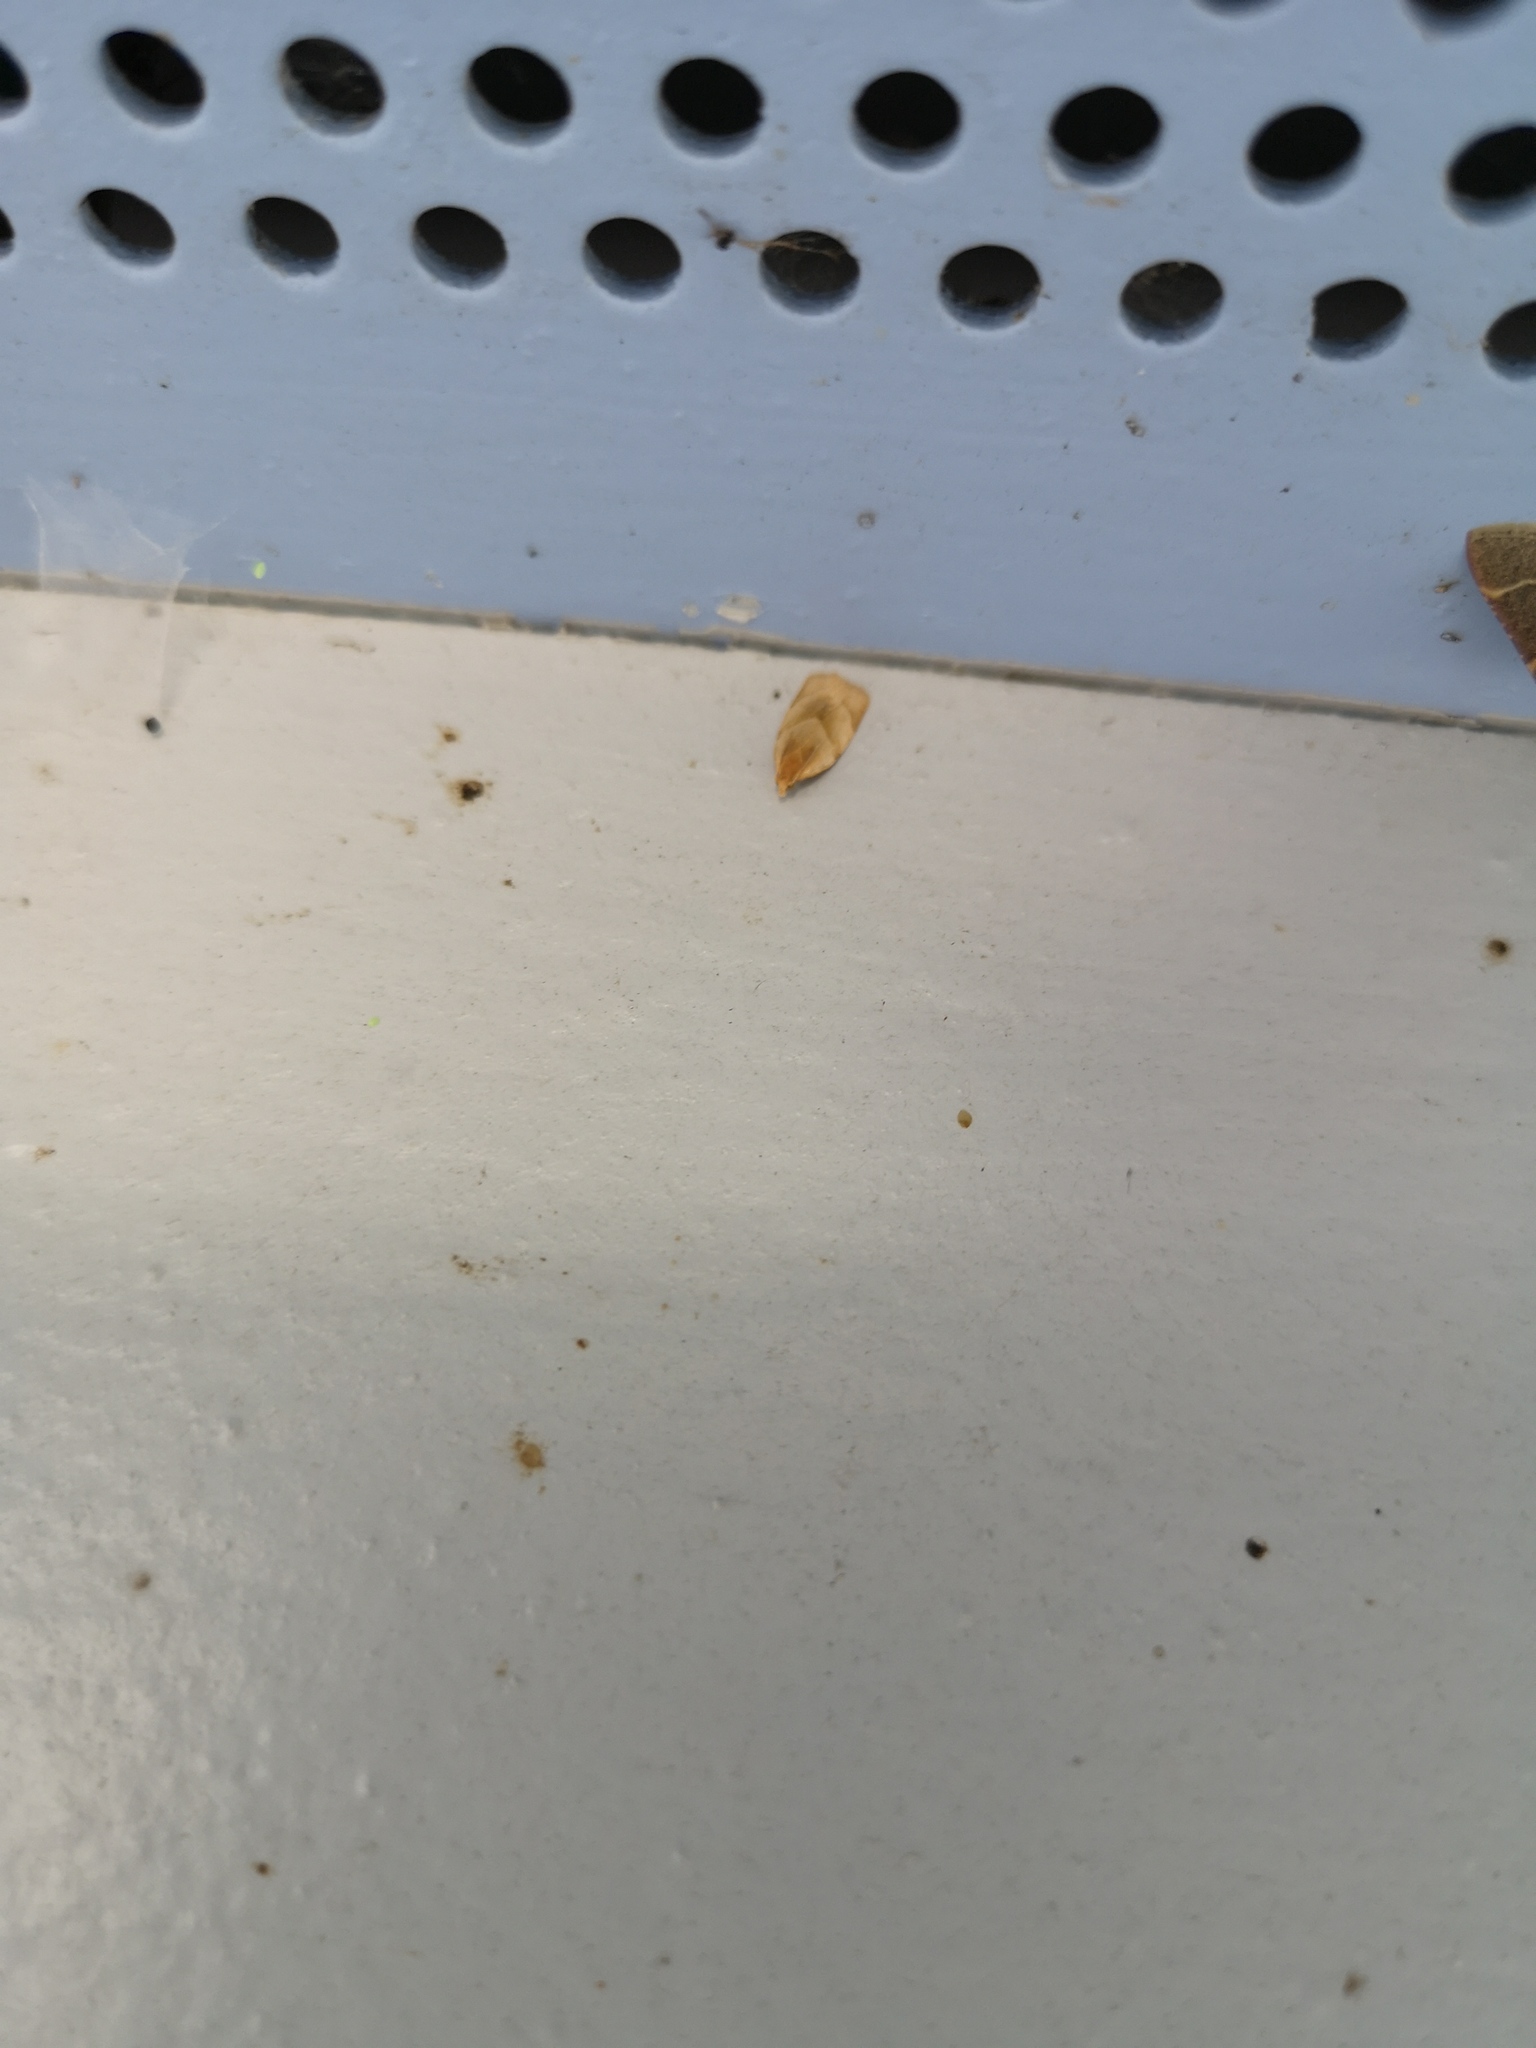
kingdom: Animalia
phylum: Arthropoda
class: Insecta
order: Lepidoptera
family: Tortricidae
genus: Clepsis
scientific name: Clepsis rurinana
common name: Pale twist
